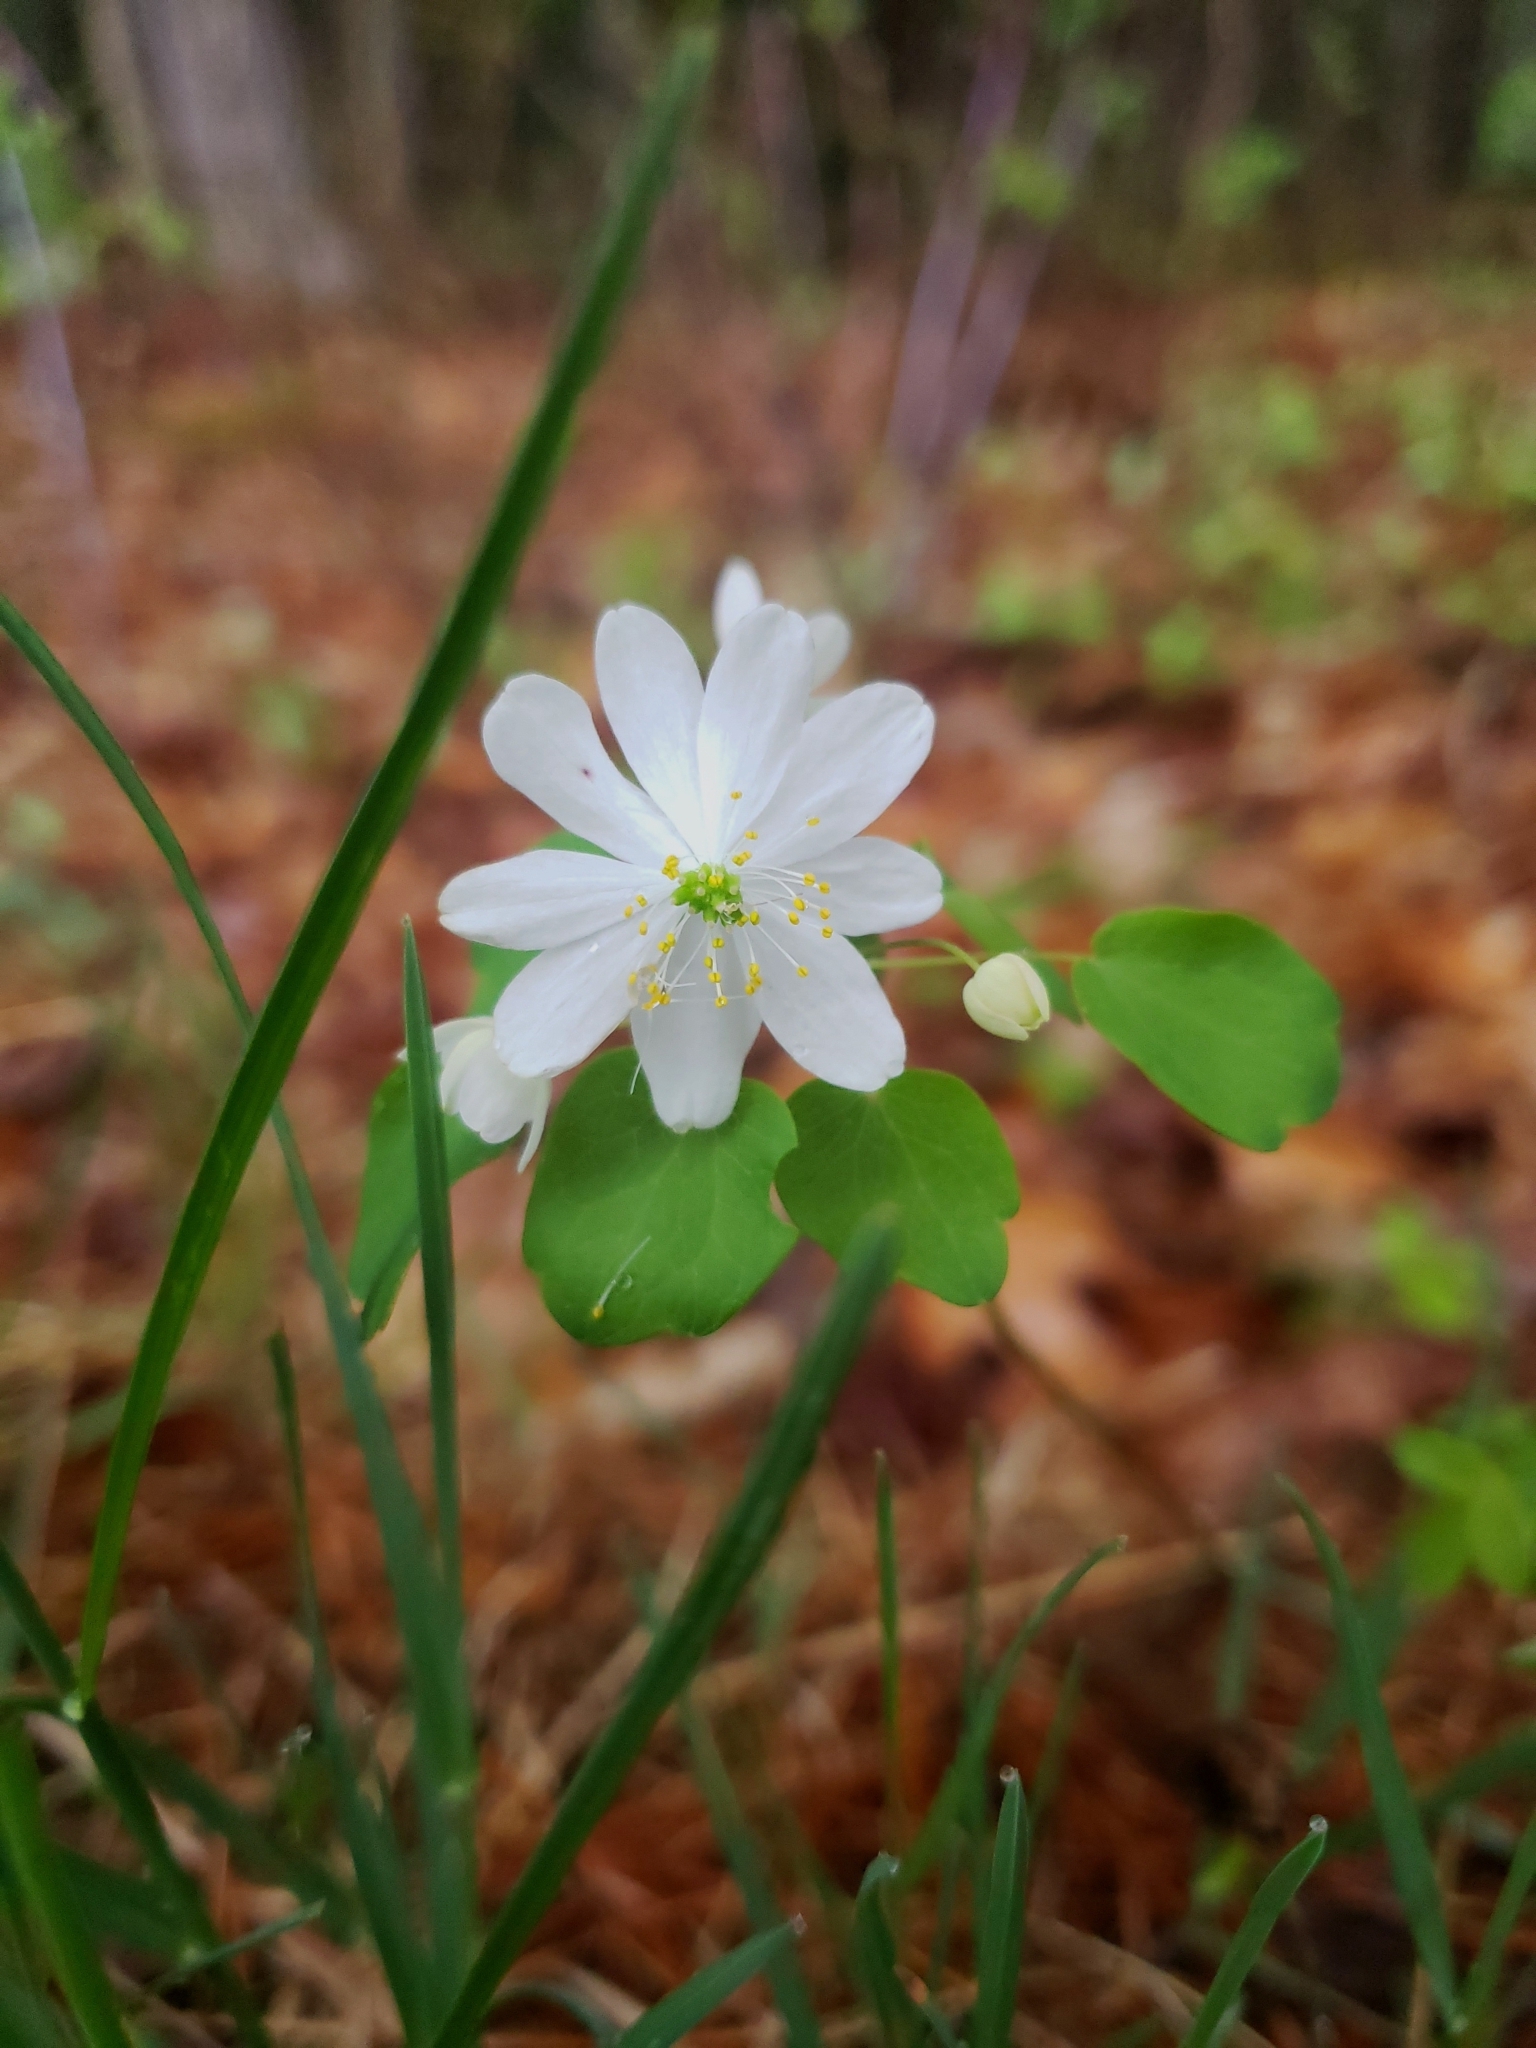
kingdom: Plantae
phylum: Tracheophyta
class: Magnoliopsida
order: Ranunculales
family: Ranunculaceae
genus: Thalictrum
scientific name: Thalictrum thalictroides
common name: Rue-anemone
